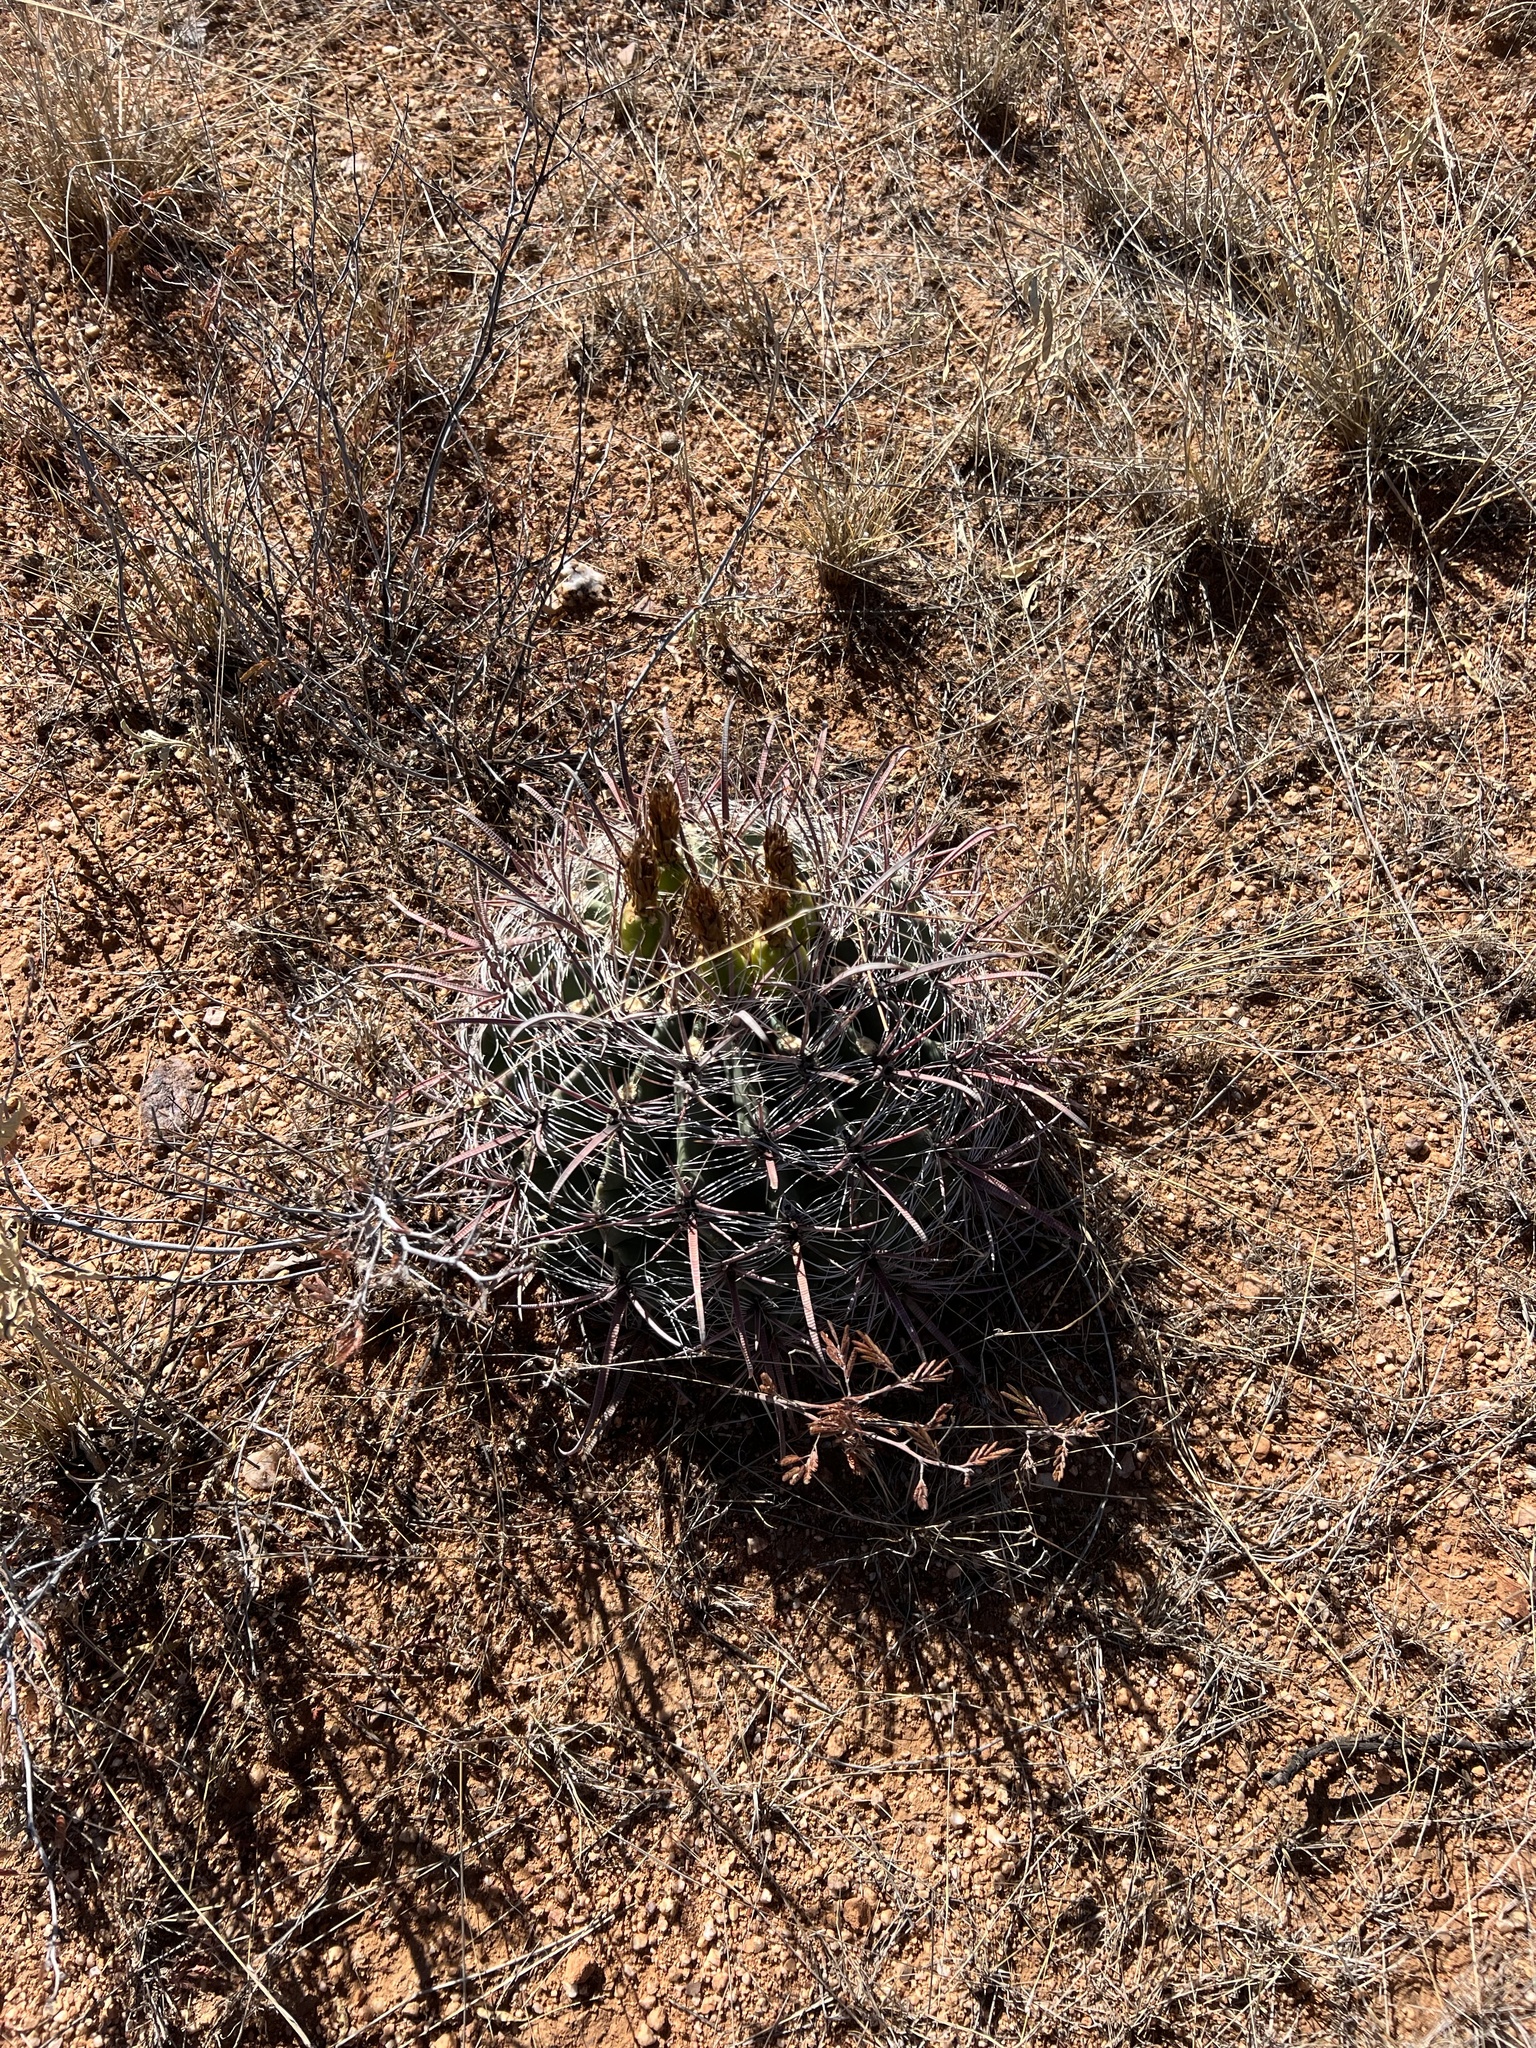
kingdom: Plantae
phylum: Tracheophyta
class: Magnoliopsida
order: Caryophyllales
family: Cactaceae
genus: Ferocactus
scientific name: Ferocactus wislizeni
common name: Candy barrel cactus
